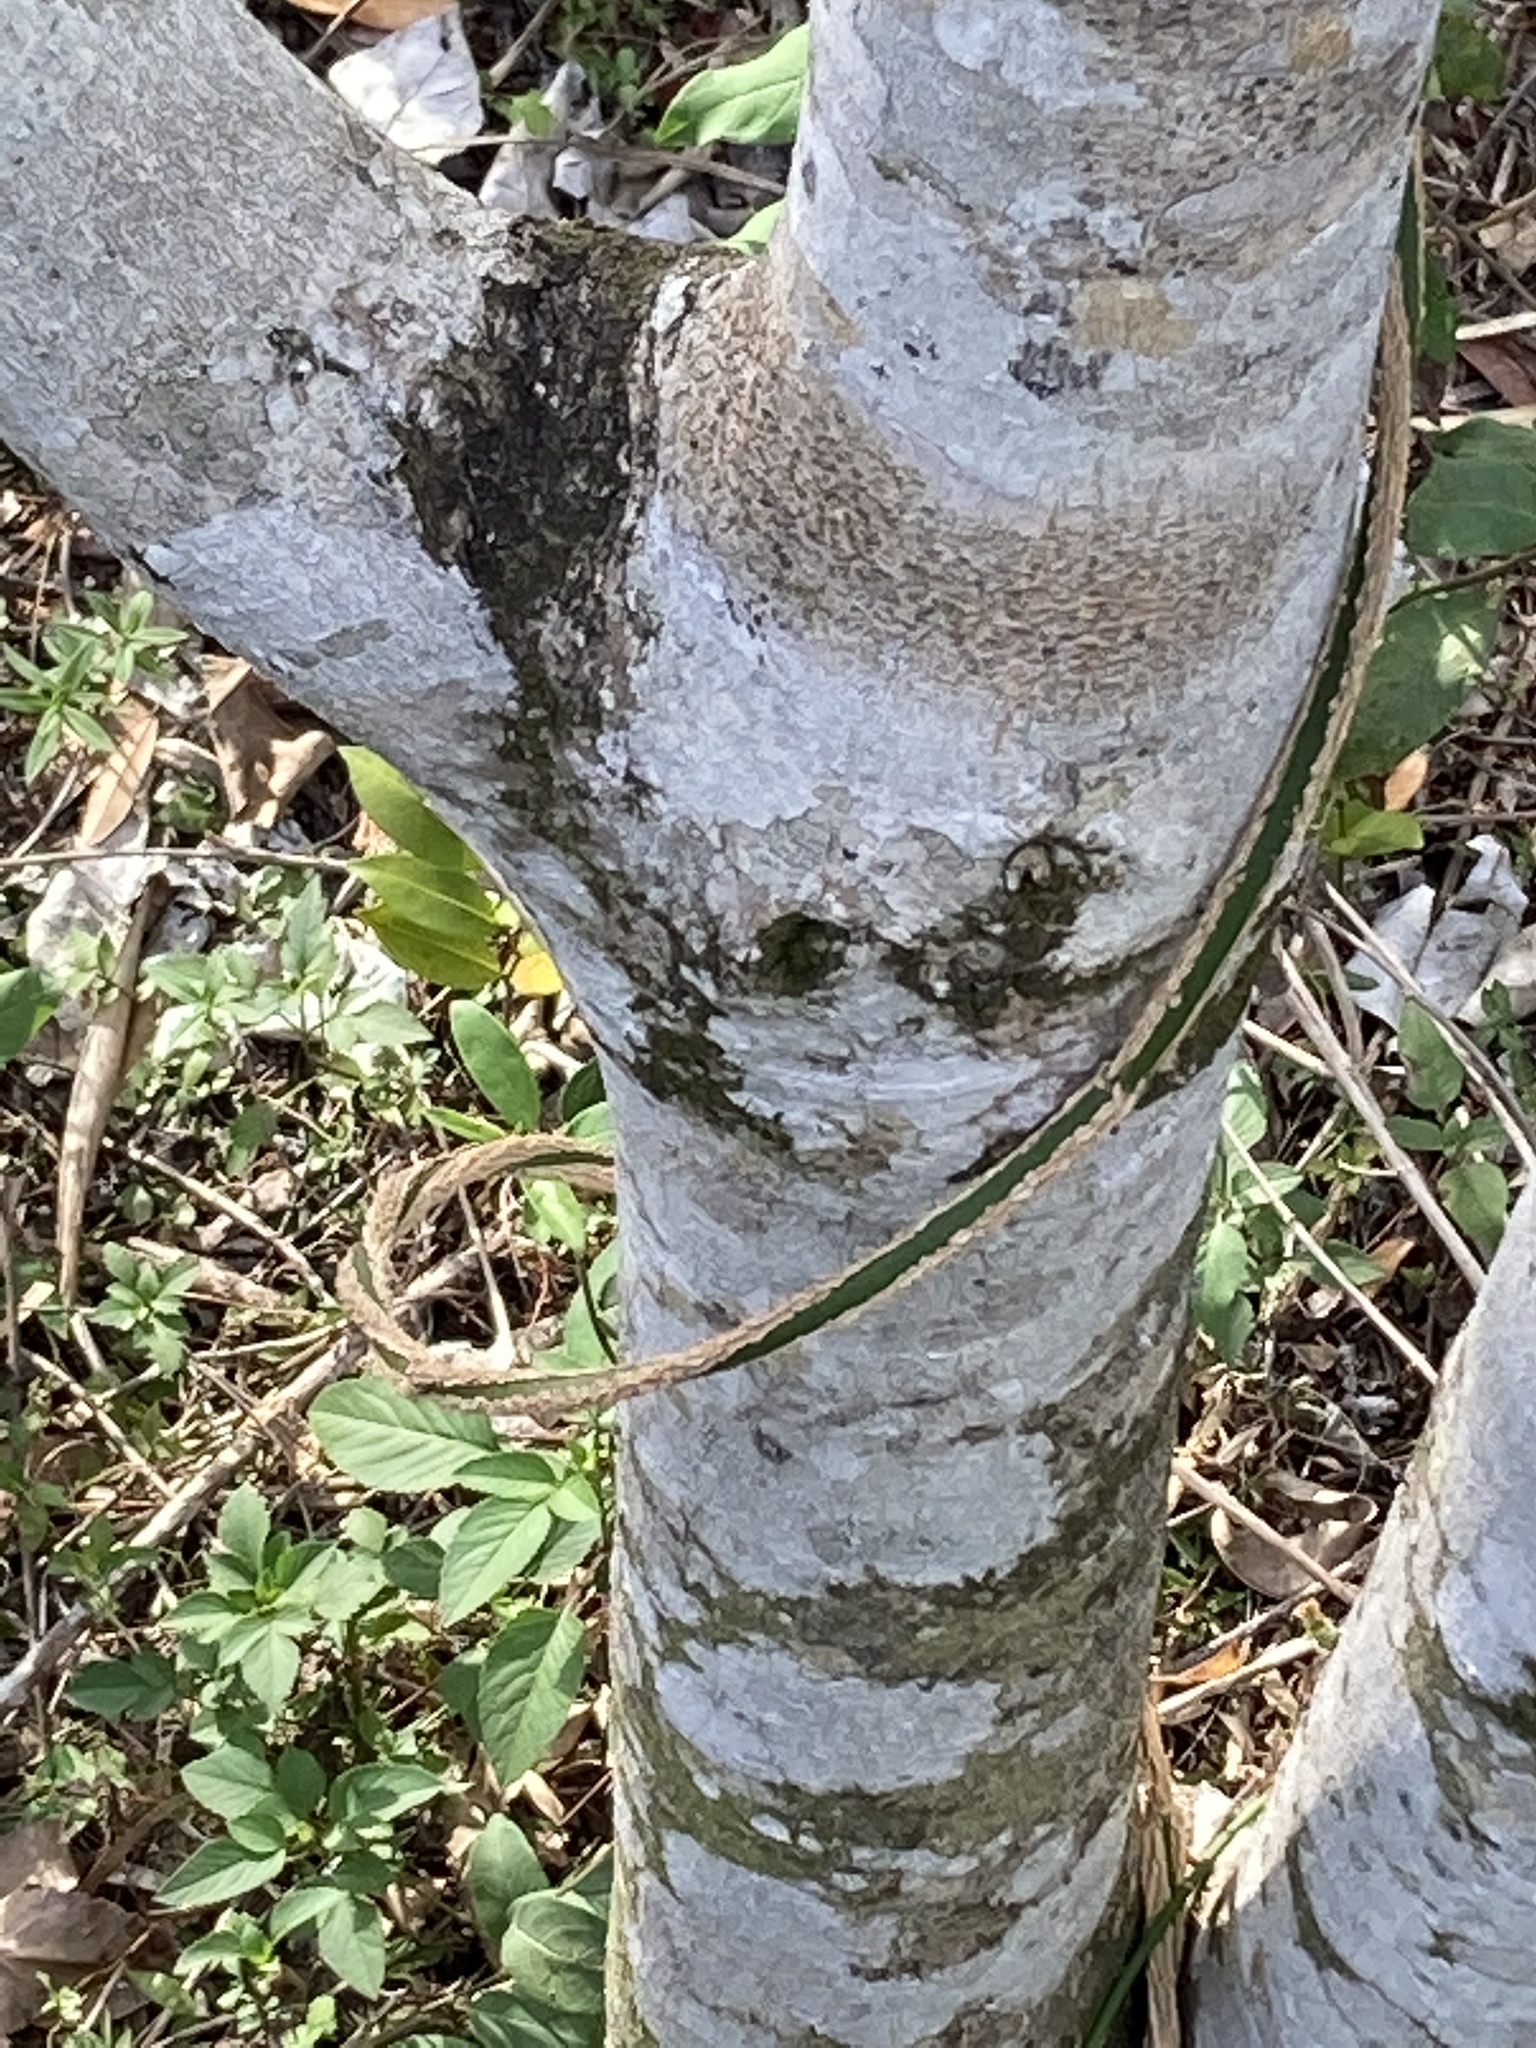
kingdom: Plantae
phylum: Tracheophyta
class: Magnoliopsida
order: Gentianales
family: Apocynaceae
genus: Funastrum
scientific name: Funastrum clausum
